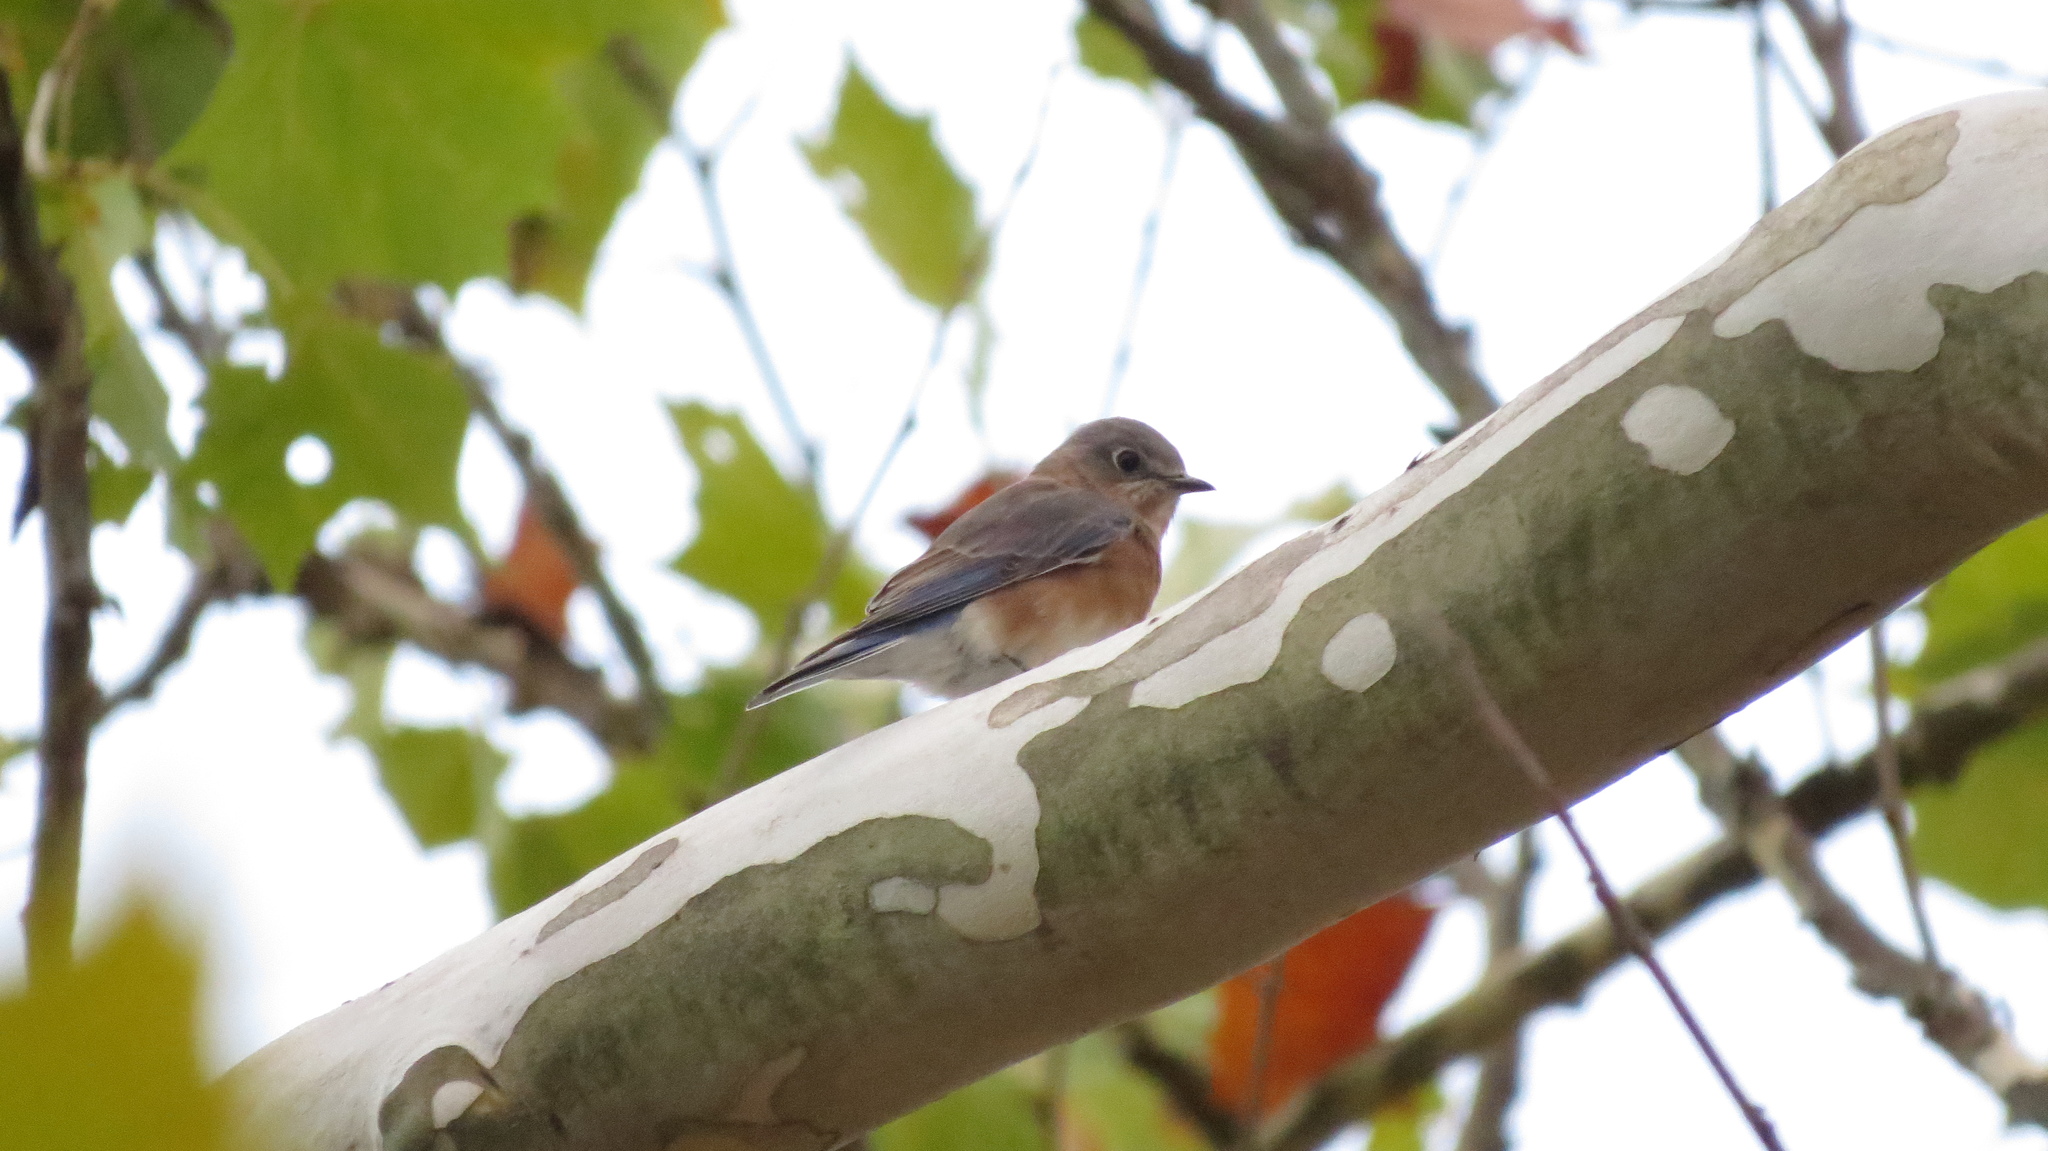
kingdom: Animalia
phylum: Chordata
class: Aves
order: Passeriformes
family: Turdidae
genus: Sialia
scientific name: Sialia sialis
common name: Eastern bluebird
